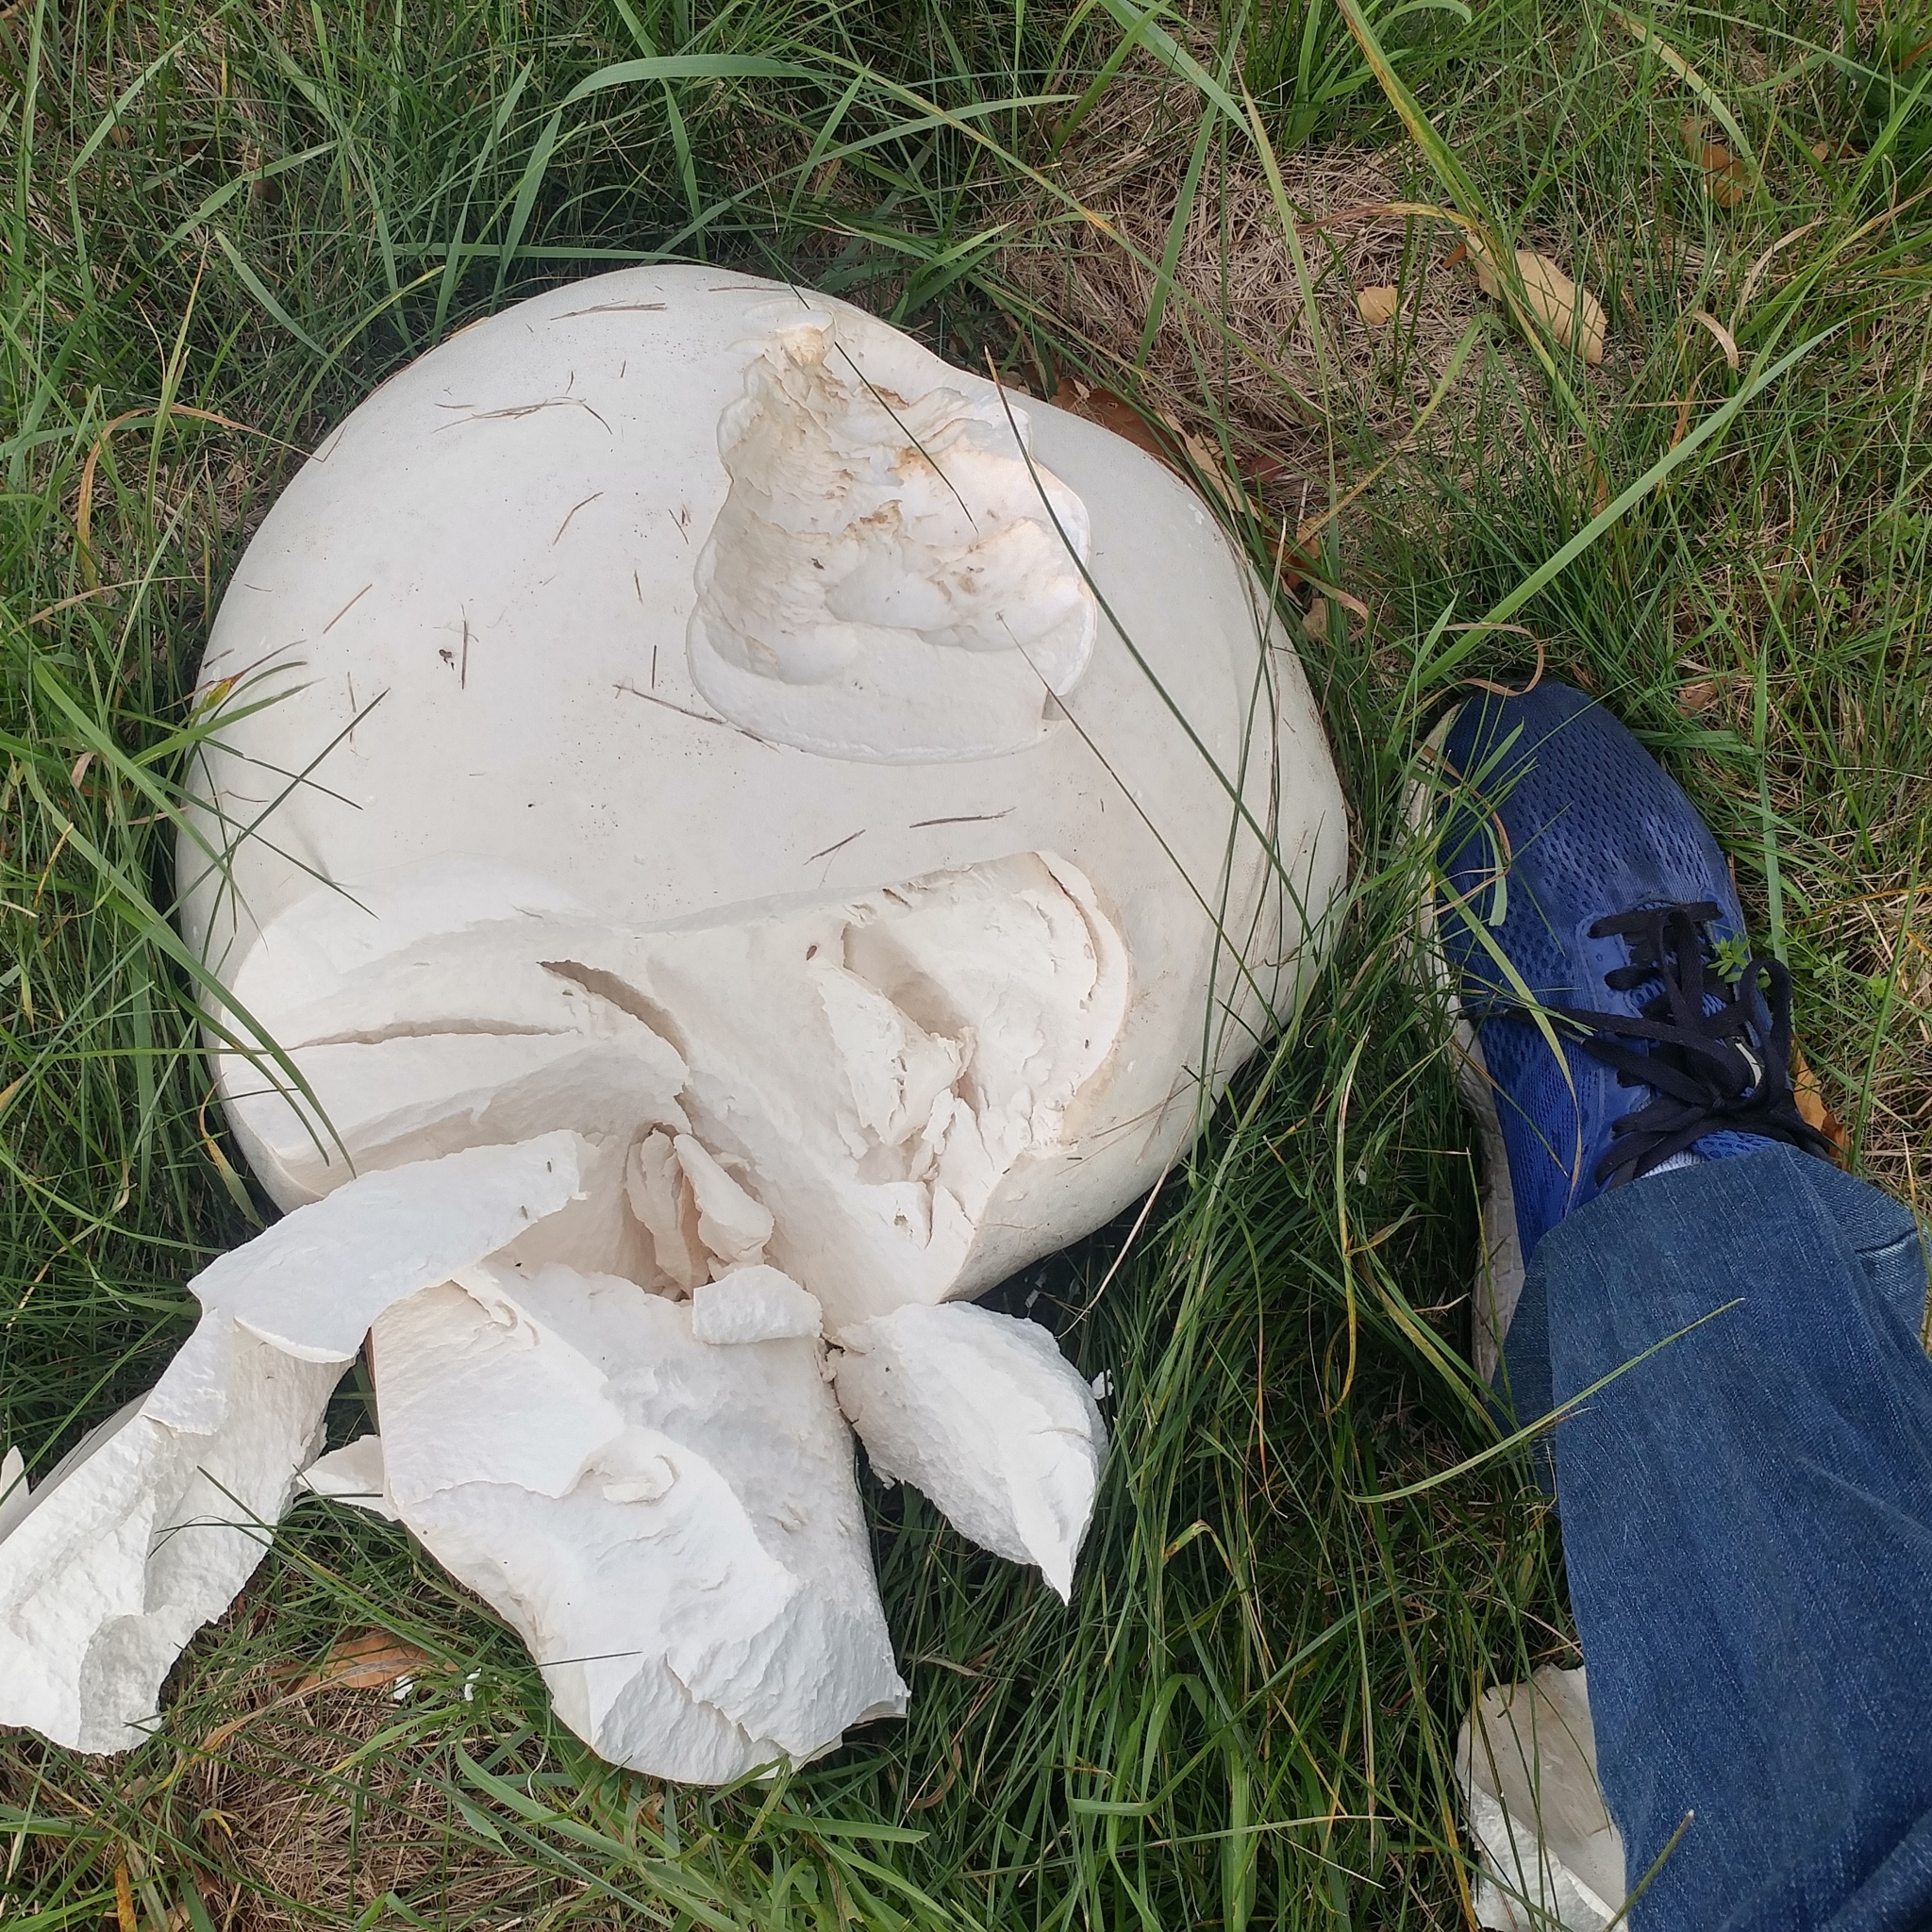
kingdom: Fungi
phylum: Basidiomycota
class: Agaricomycetes
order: Agaricales
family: Lycoperdaceae
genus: Calvatia
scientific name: Calvatia gigantea
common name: Giant puffball
